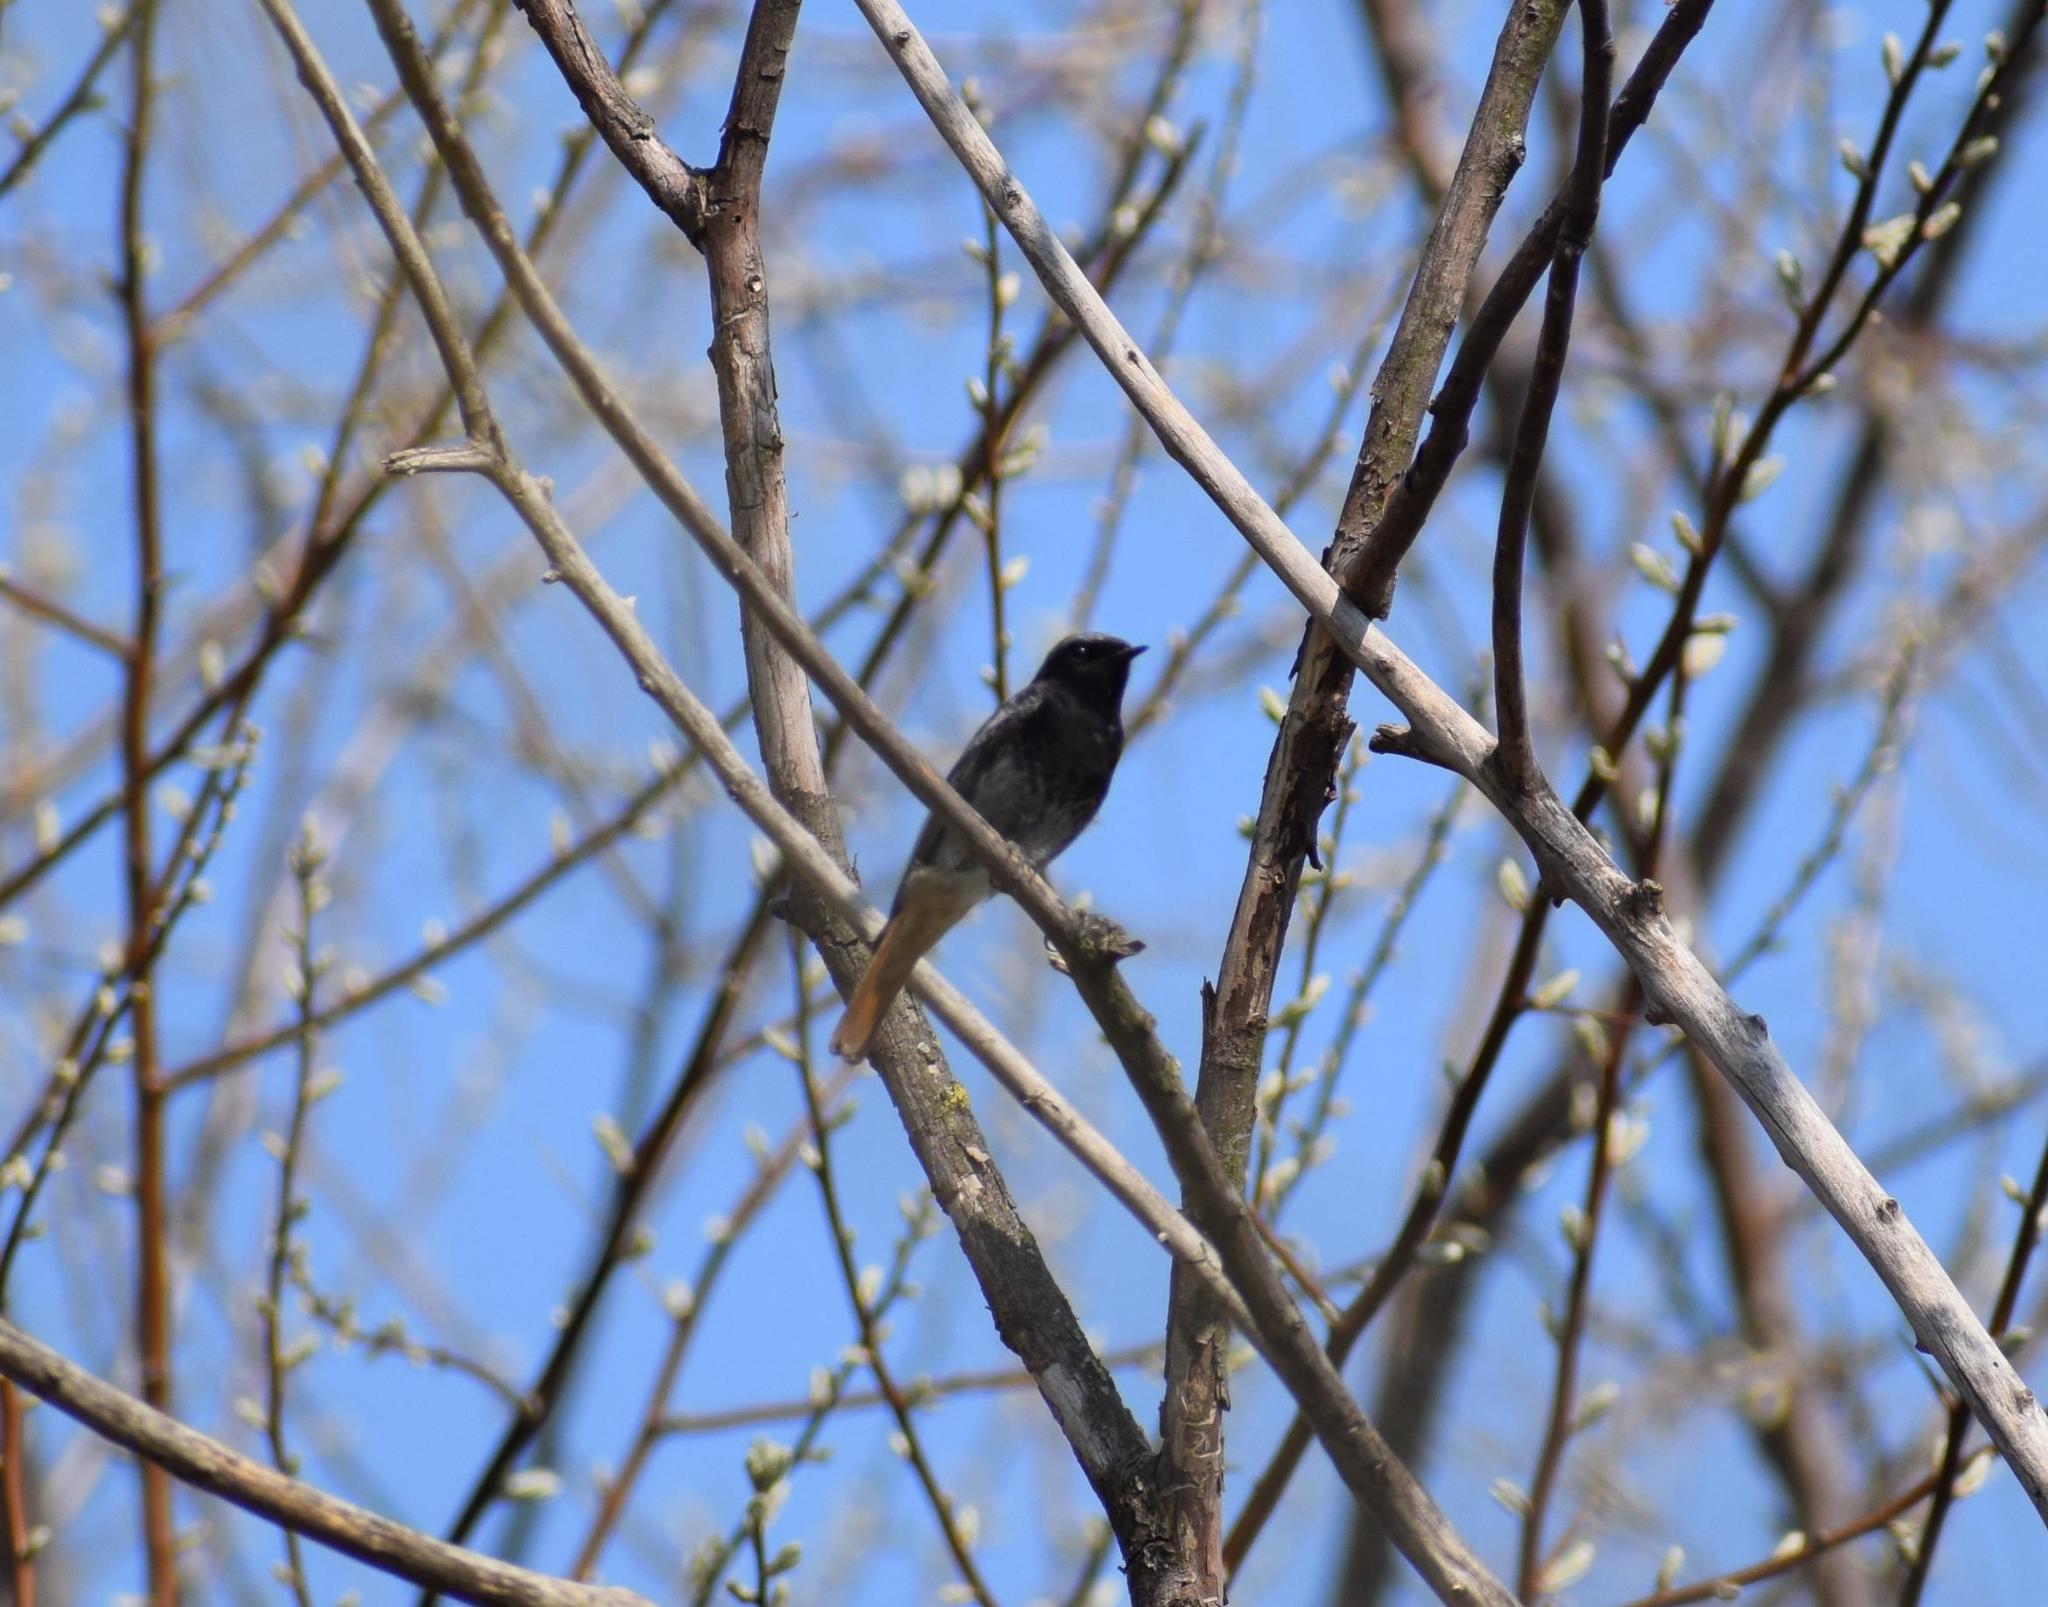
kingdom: Animalia
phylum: Chordata
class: Aves
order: Passeriformes
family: Muscicapidae
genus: Phoenicurus
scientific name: Phoenicurus ochruros
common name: Black redstart
